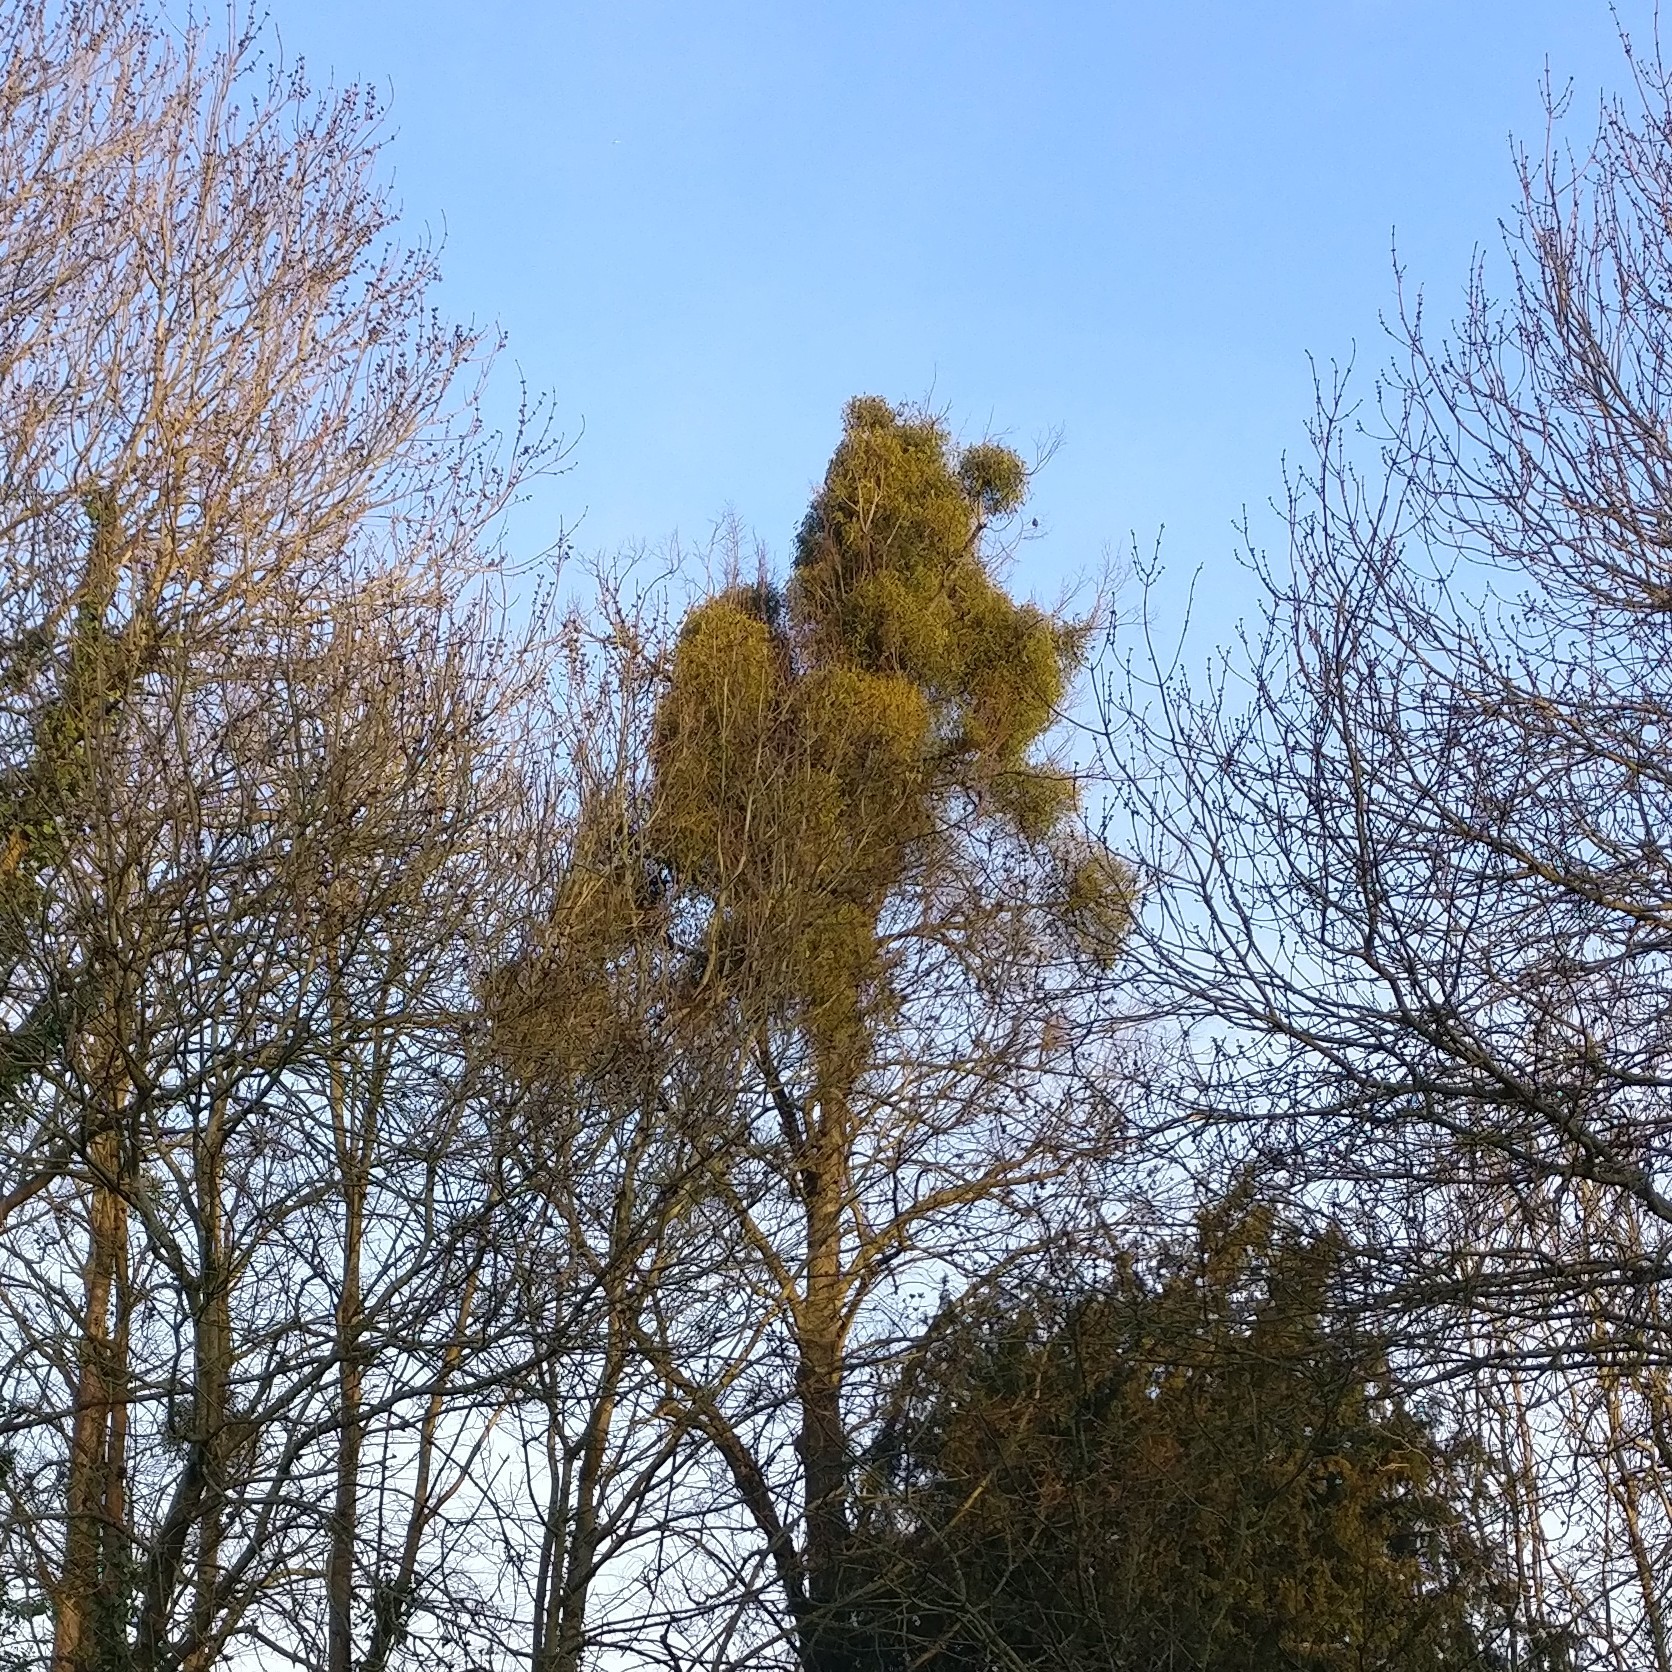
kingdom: Plantae
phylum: Tracheophyta
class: Magnoliopsida
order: Santalales
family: Viscaceae
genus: Viscum
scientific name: Viscum album
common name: Mistletoe
